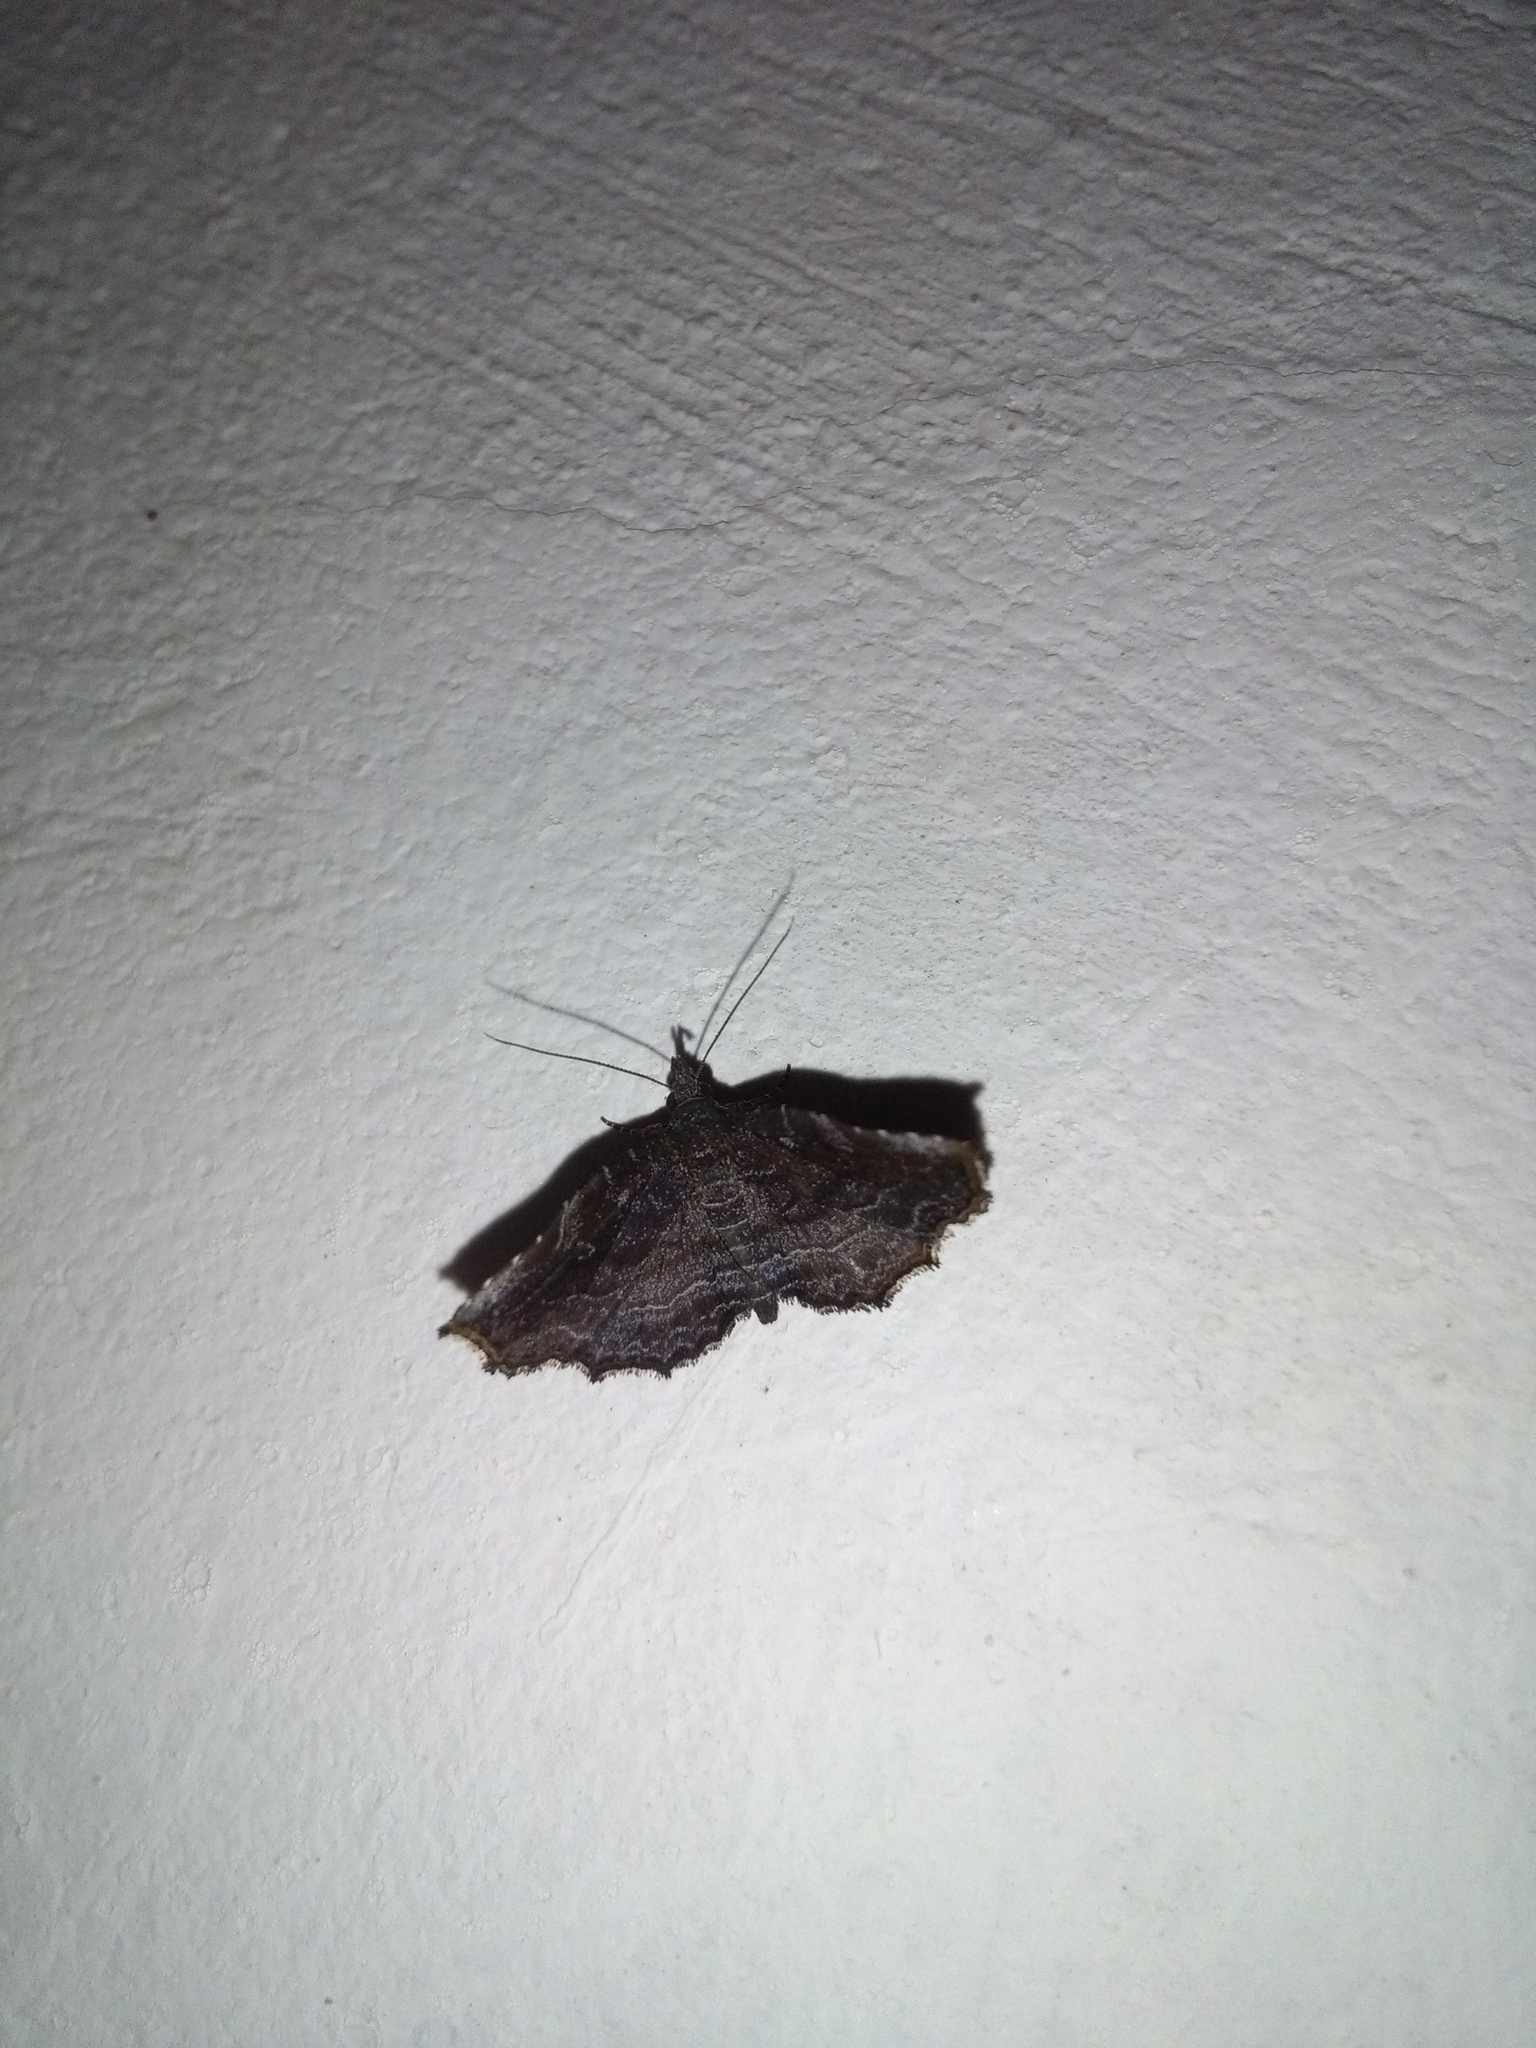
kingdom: Animalia
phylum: Arthropoda
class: Insecta
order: Lepidoptera
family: Erebidae
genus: Nagadeba
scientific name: Nagadeba indecoralis
